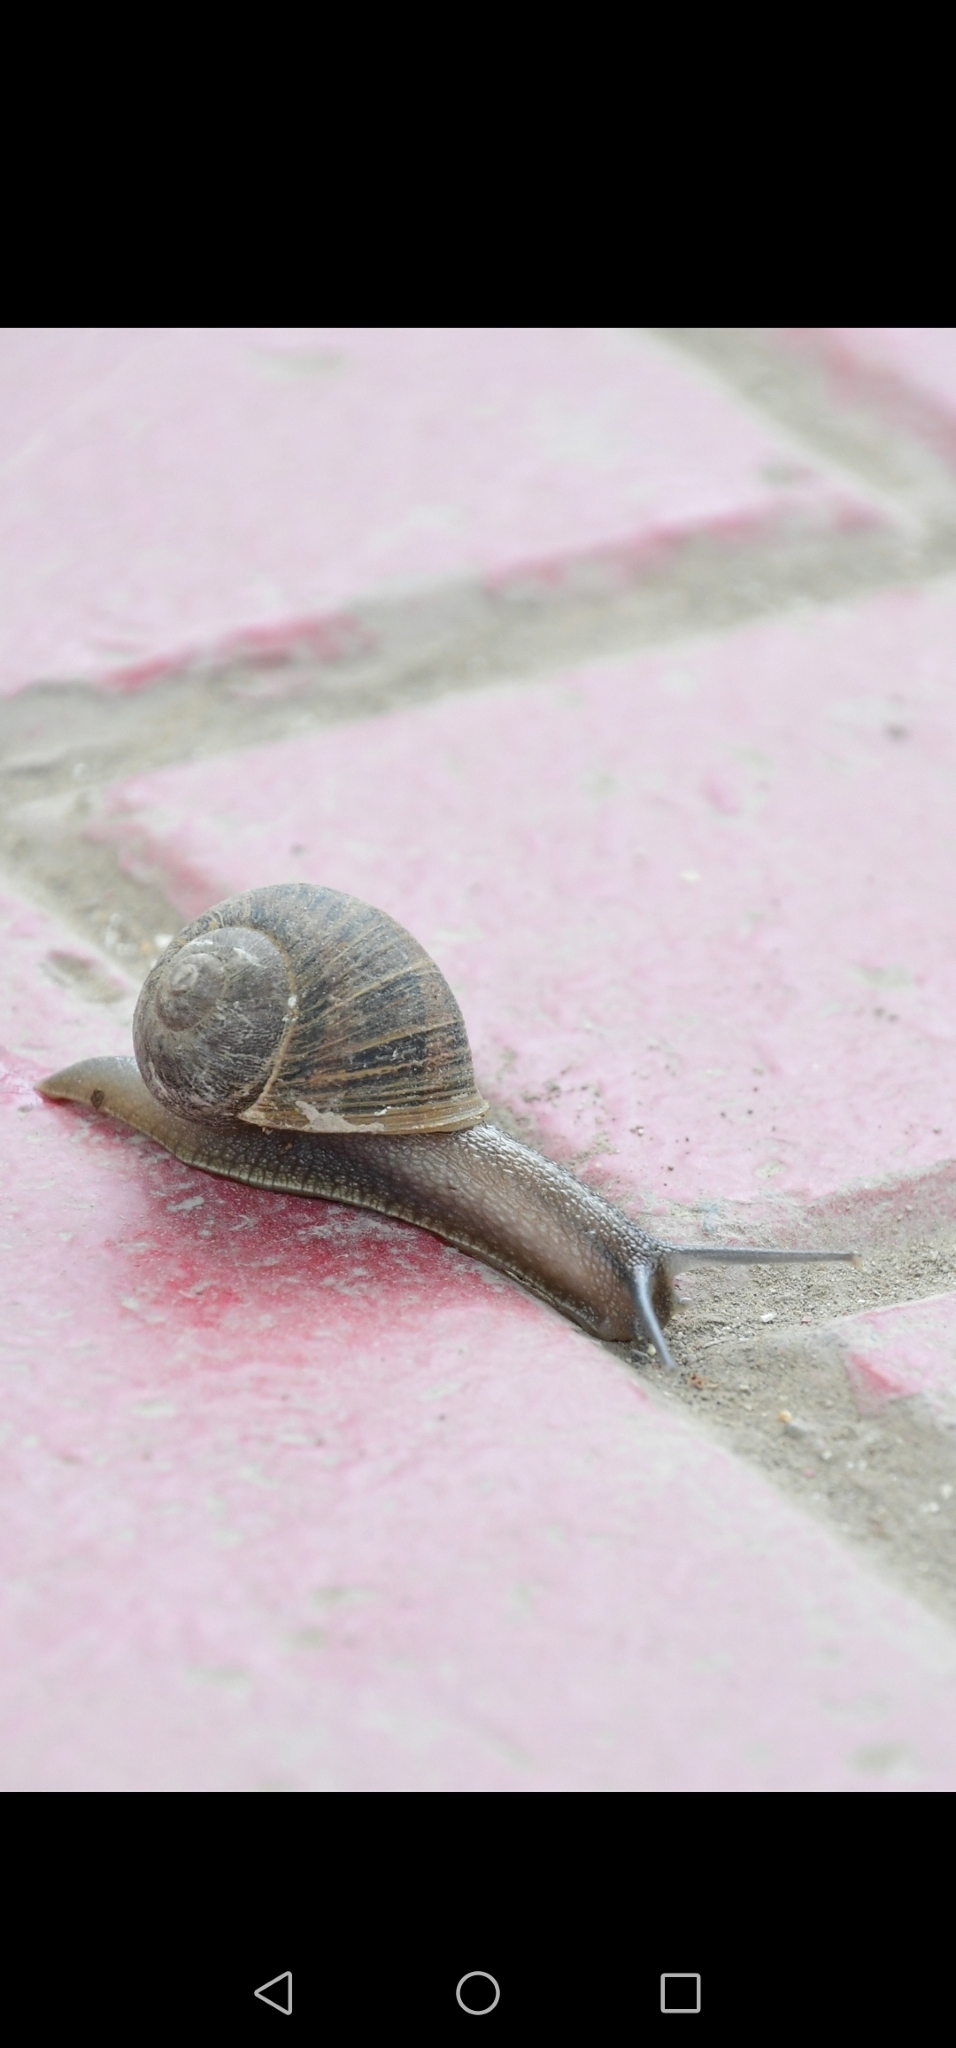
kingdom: Animalia
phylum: Mollusca
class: Gastropoda
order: Stylommatophora
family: Helicidae
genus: Cornu
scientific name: Cornu aspersum
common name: Brown garden snail
